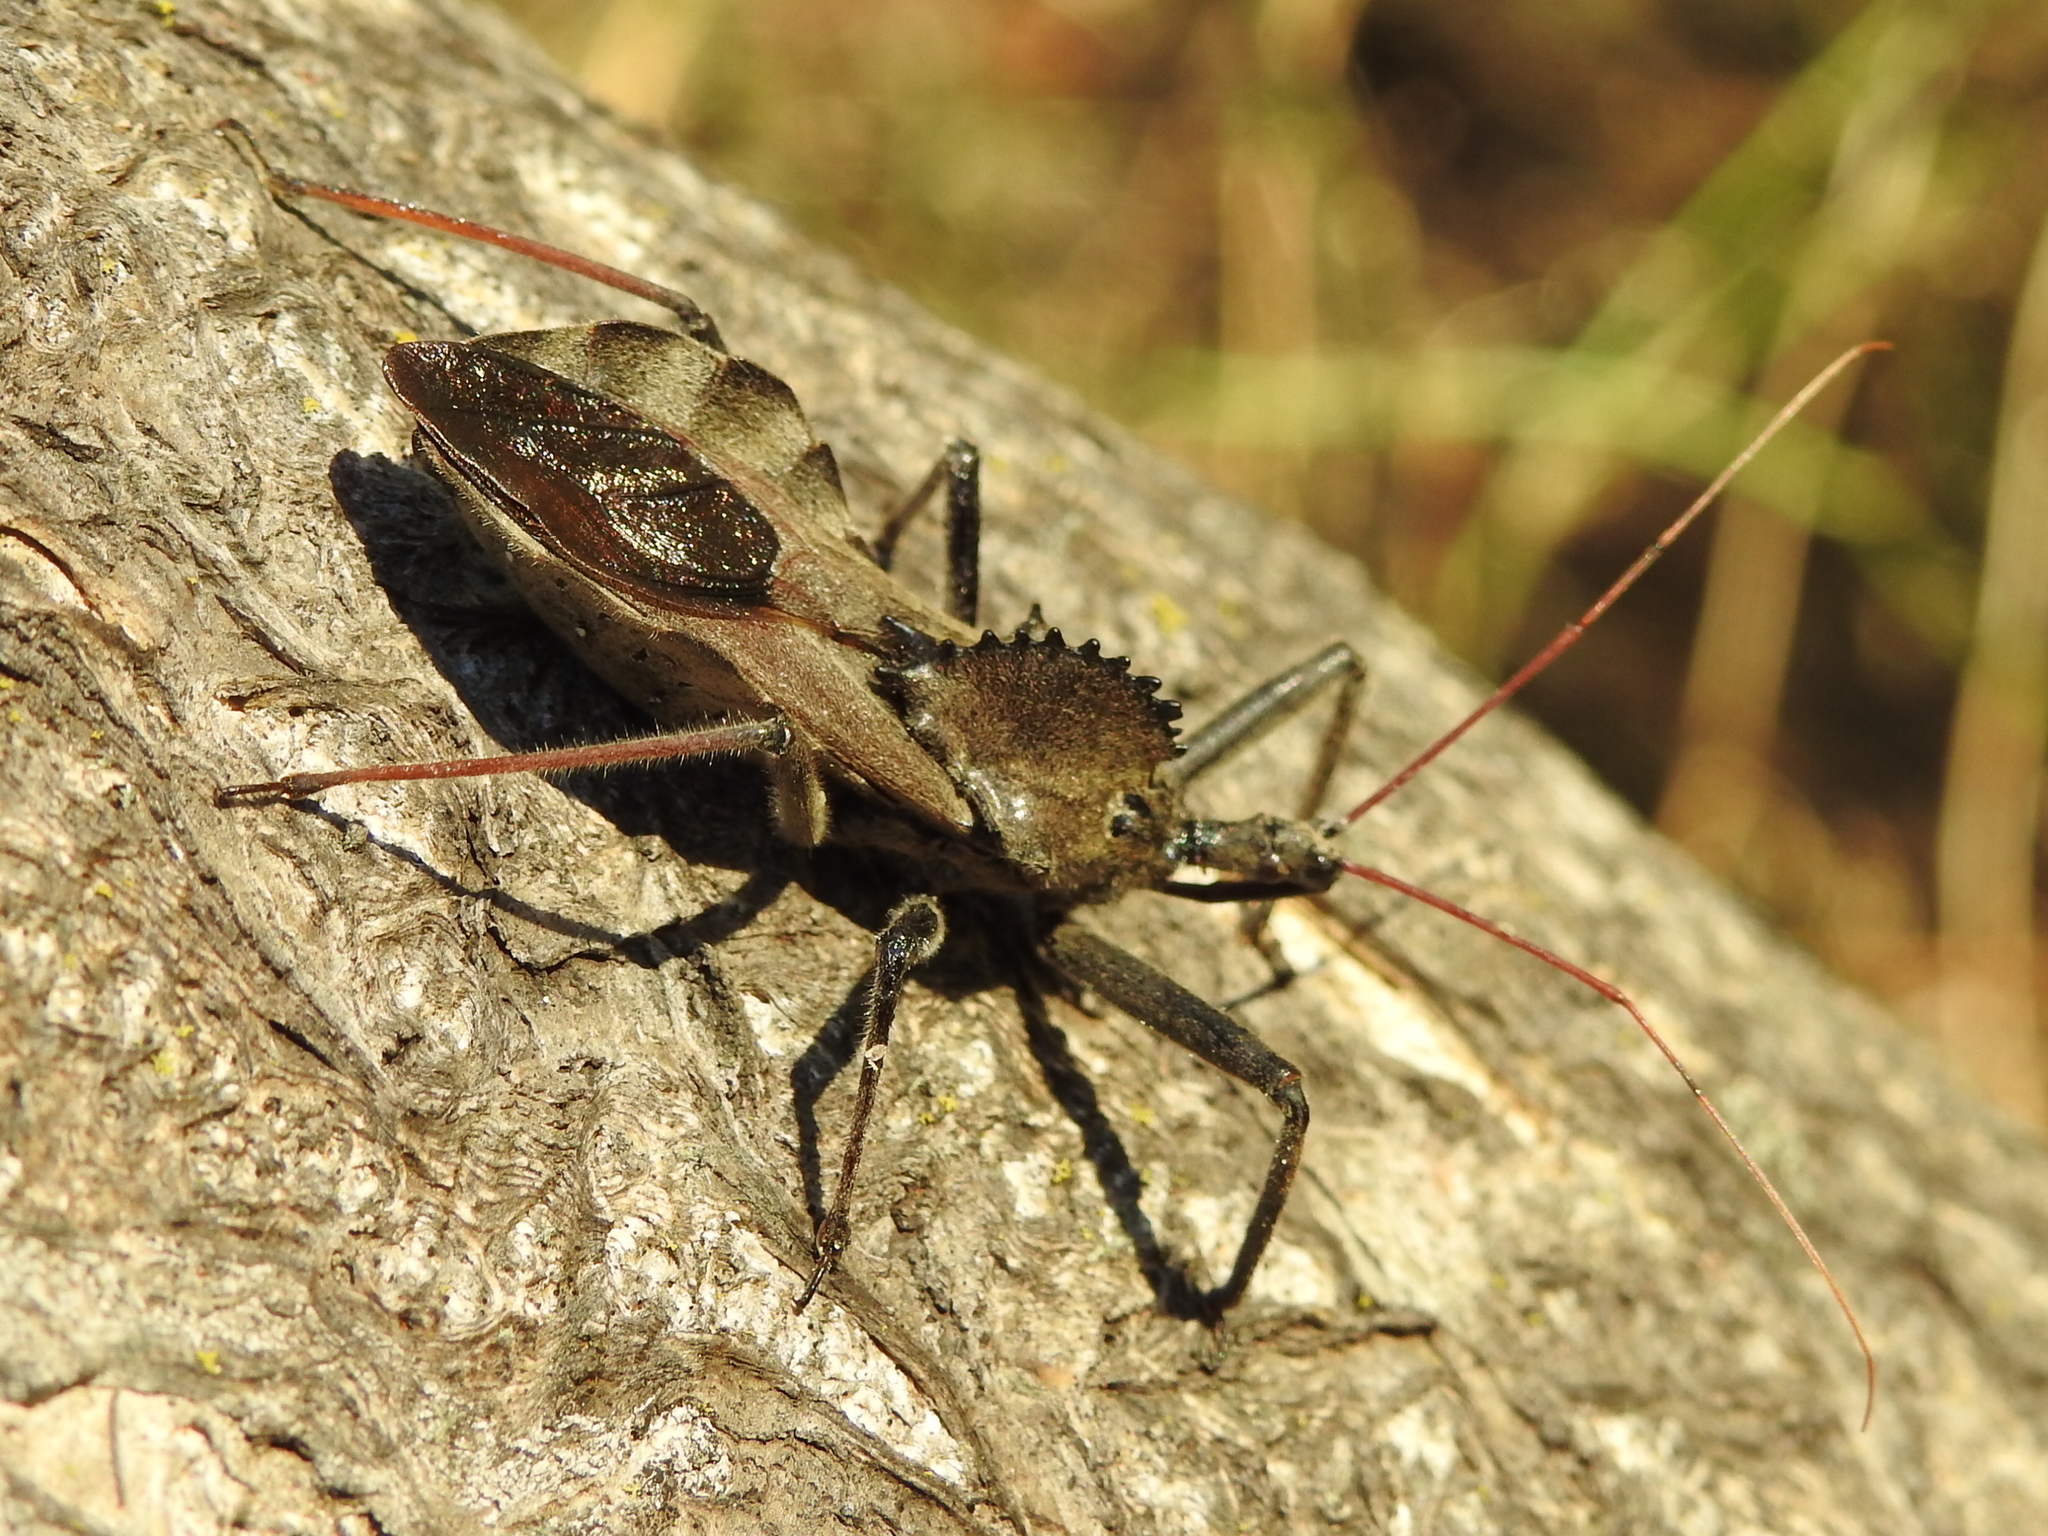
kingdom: Animalia
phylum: Arthropoda
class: Insecta
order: Hemiptera
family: Reduviidae
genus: Arilus
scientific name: Arilus cristatus
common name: North american wheel bug
